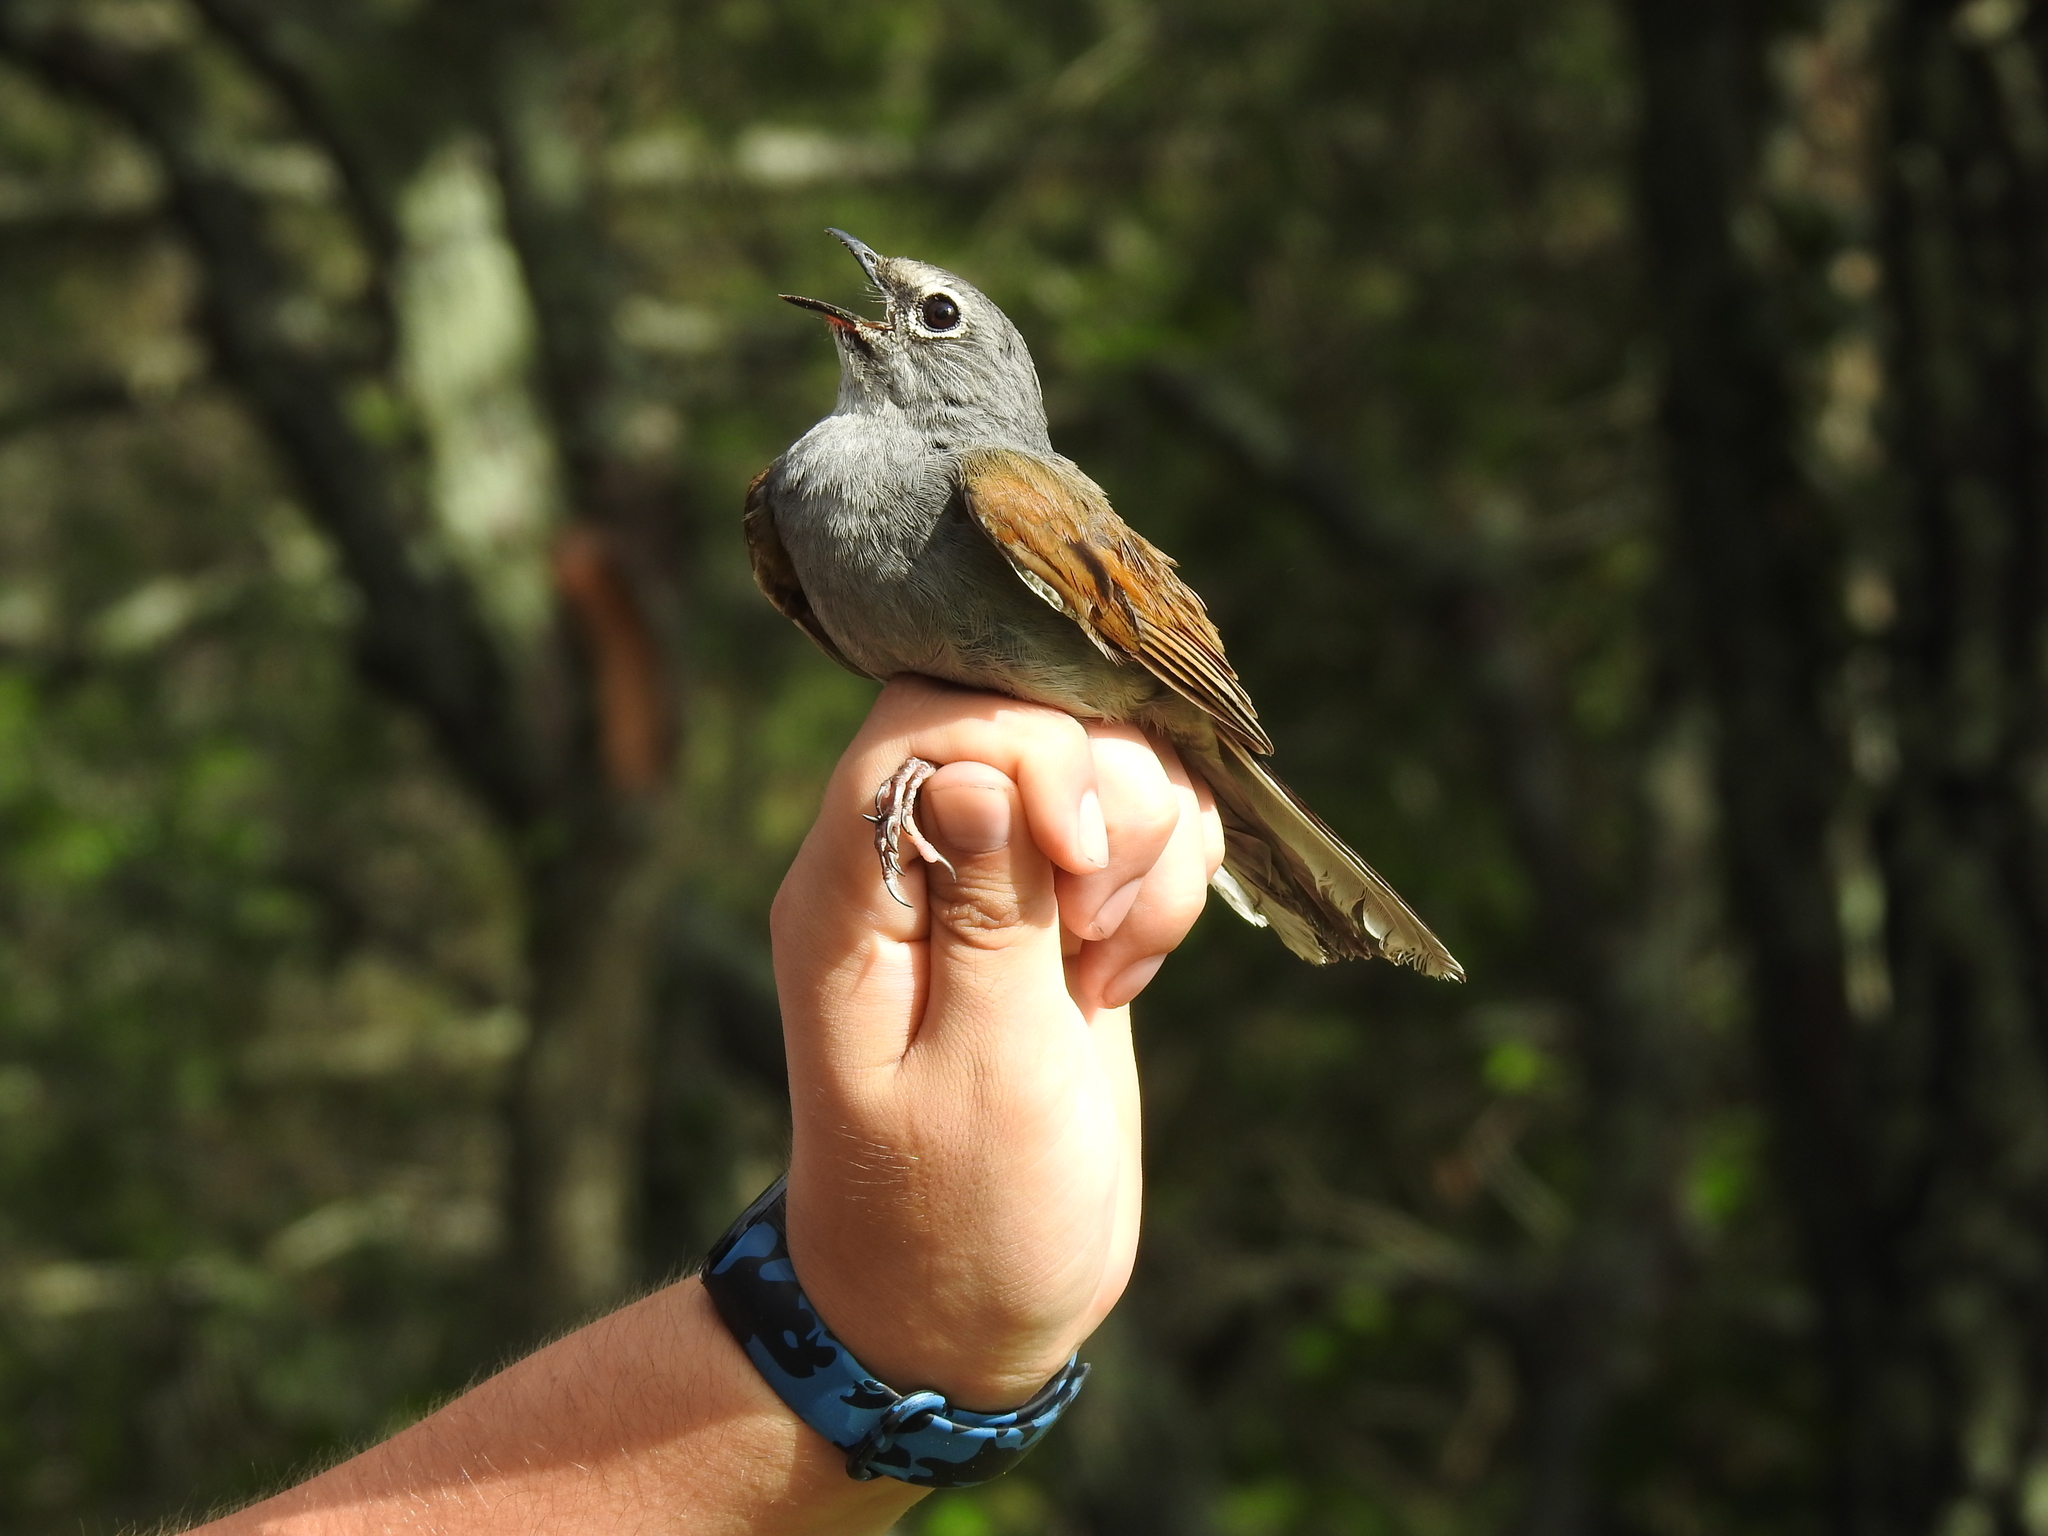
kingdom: Animalia
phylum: Chordata
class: Aves
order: Passeriformes
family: Turdidae
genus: Myadestes
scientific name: Myadestes occidentalis
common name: Brown-backed solitaire
